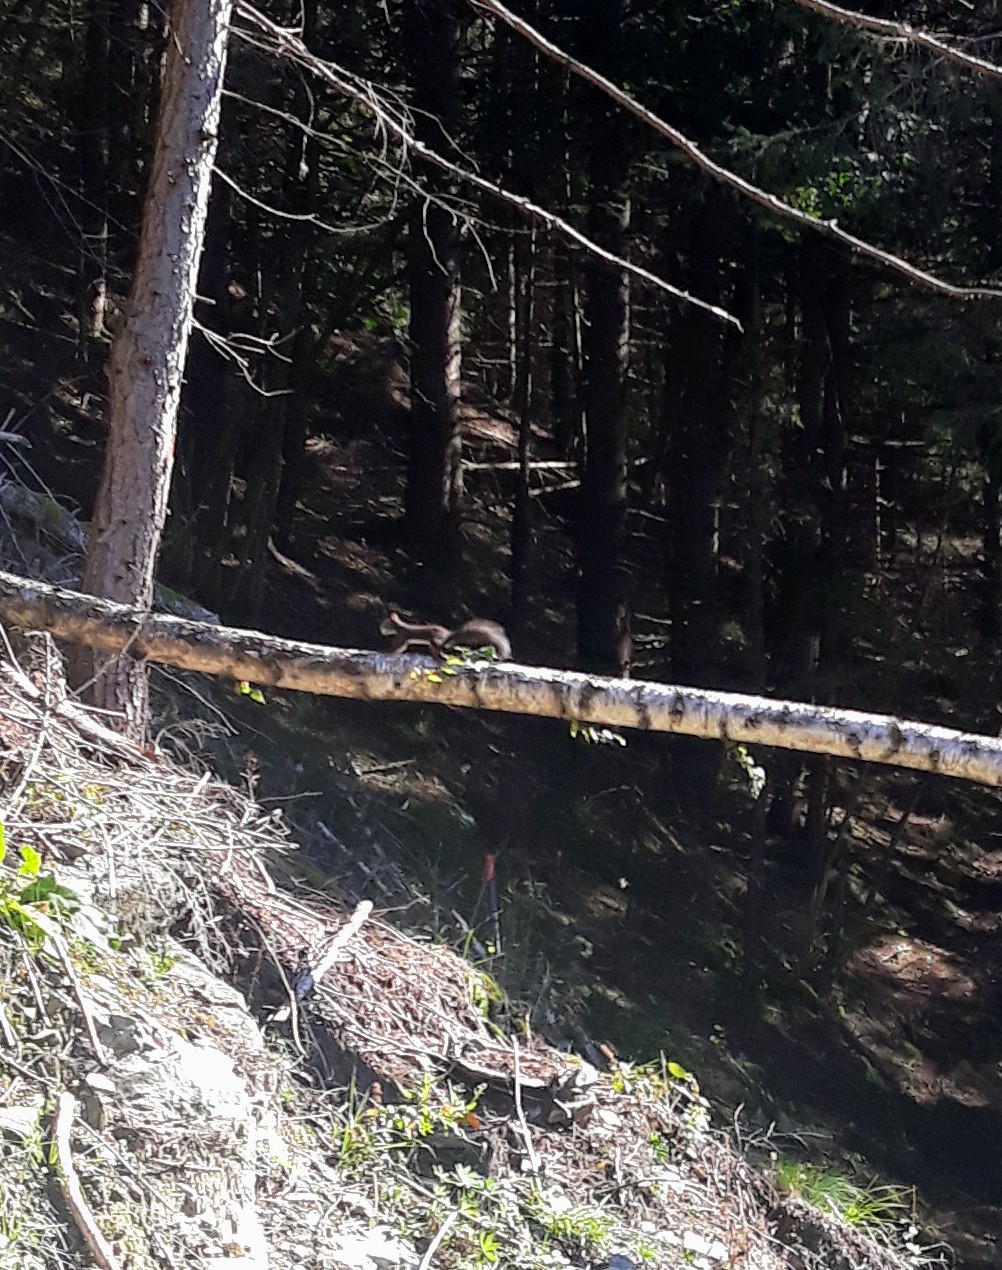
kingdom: Animalia
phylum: Chordata
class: Mammalia
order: Rodentia
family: Sciuridae
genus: Sciurus
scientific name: Sciurus vulgaris
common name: Eurasian red squirrel
